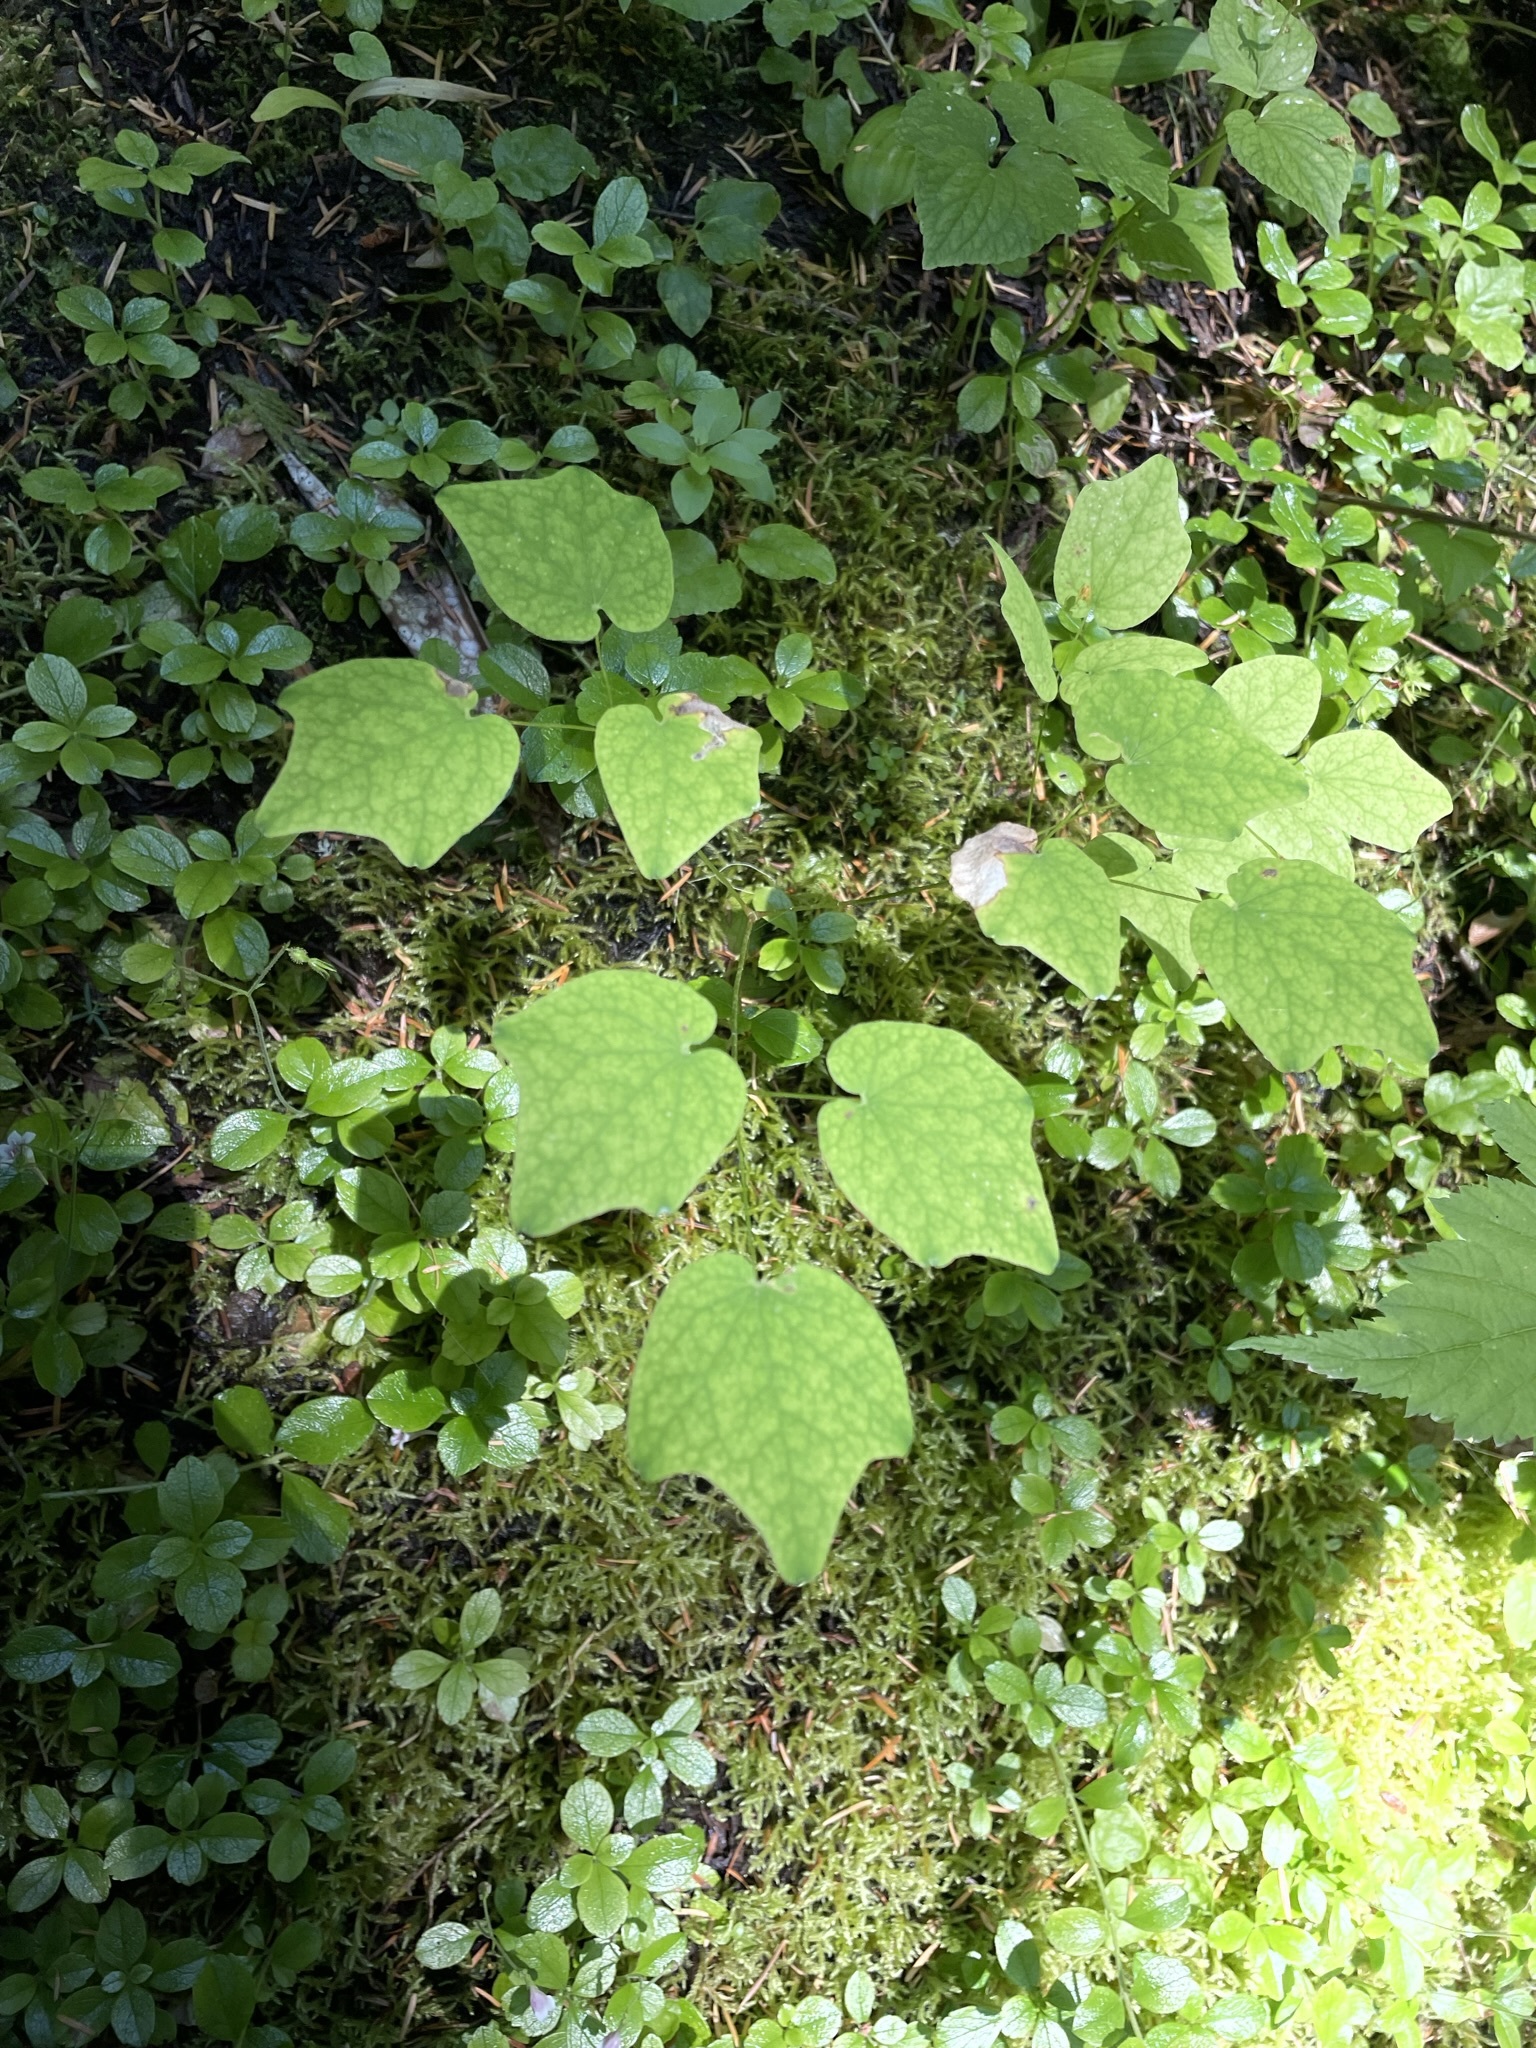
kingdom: Plantae
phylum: Tracheophyta
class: Magnoliopsida
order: Ranunculales
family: Berberidaceae
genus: Vancouveria
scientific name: Vancouveria hexandra
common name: Northern inside-out-flower
